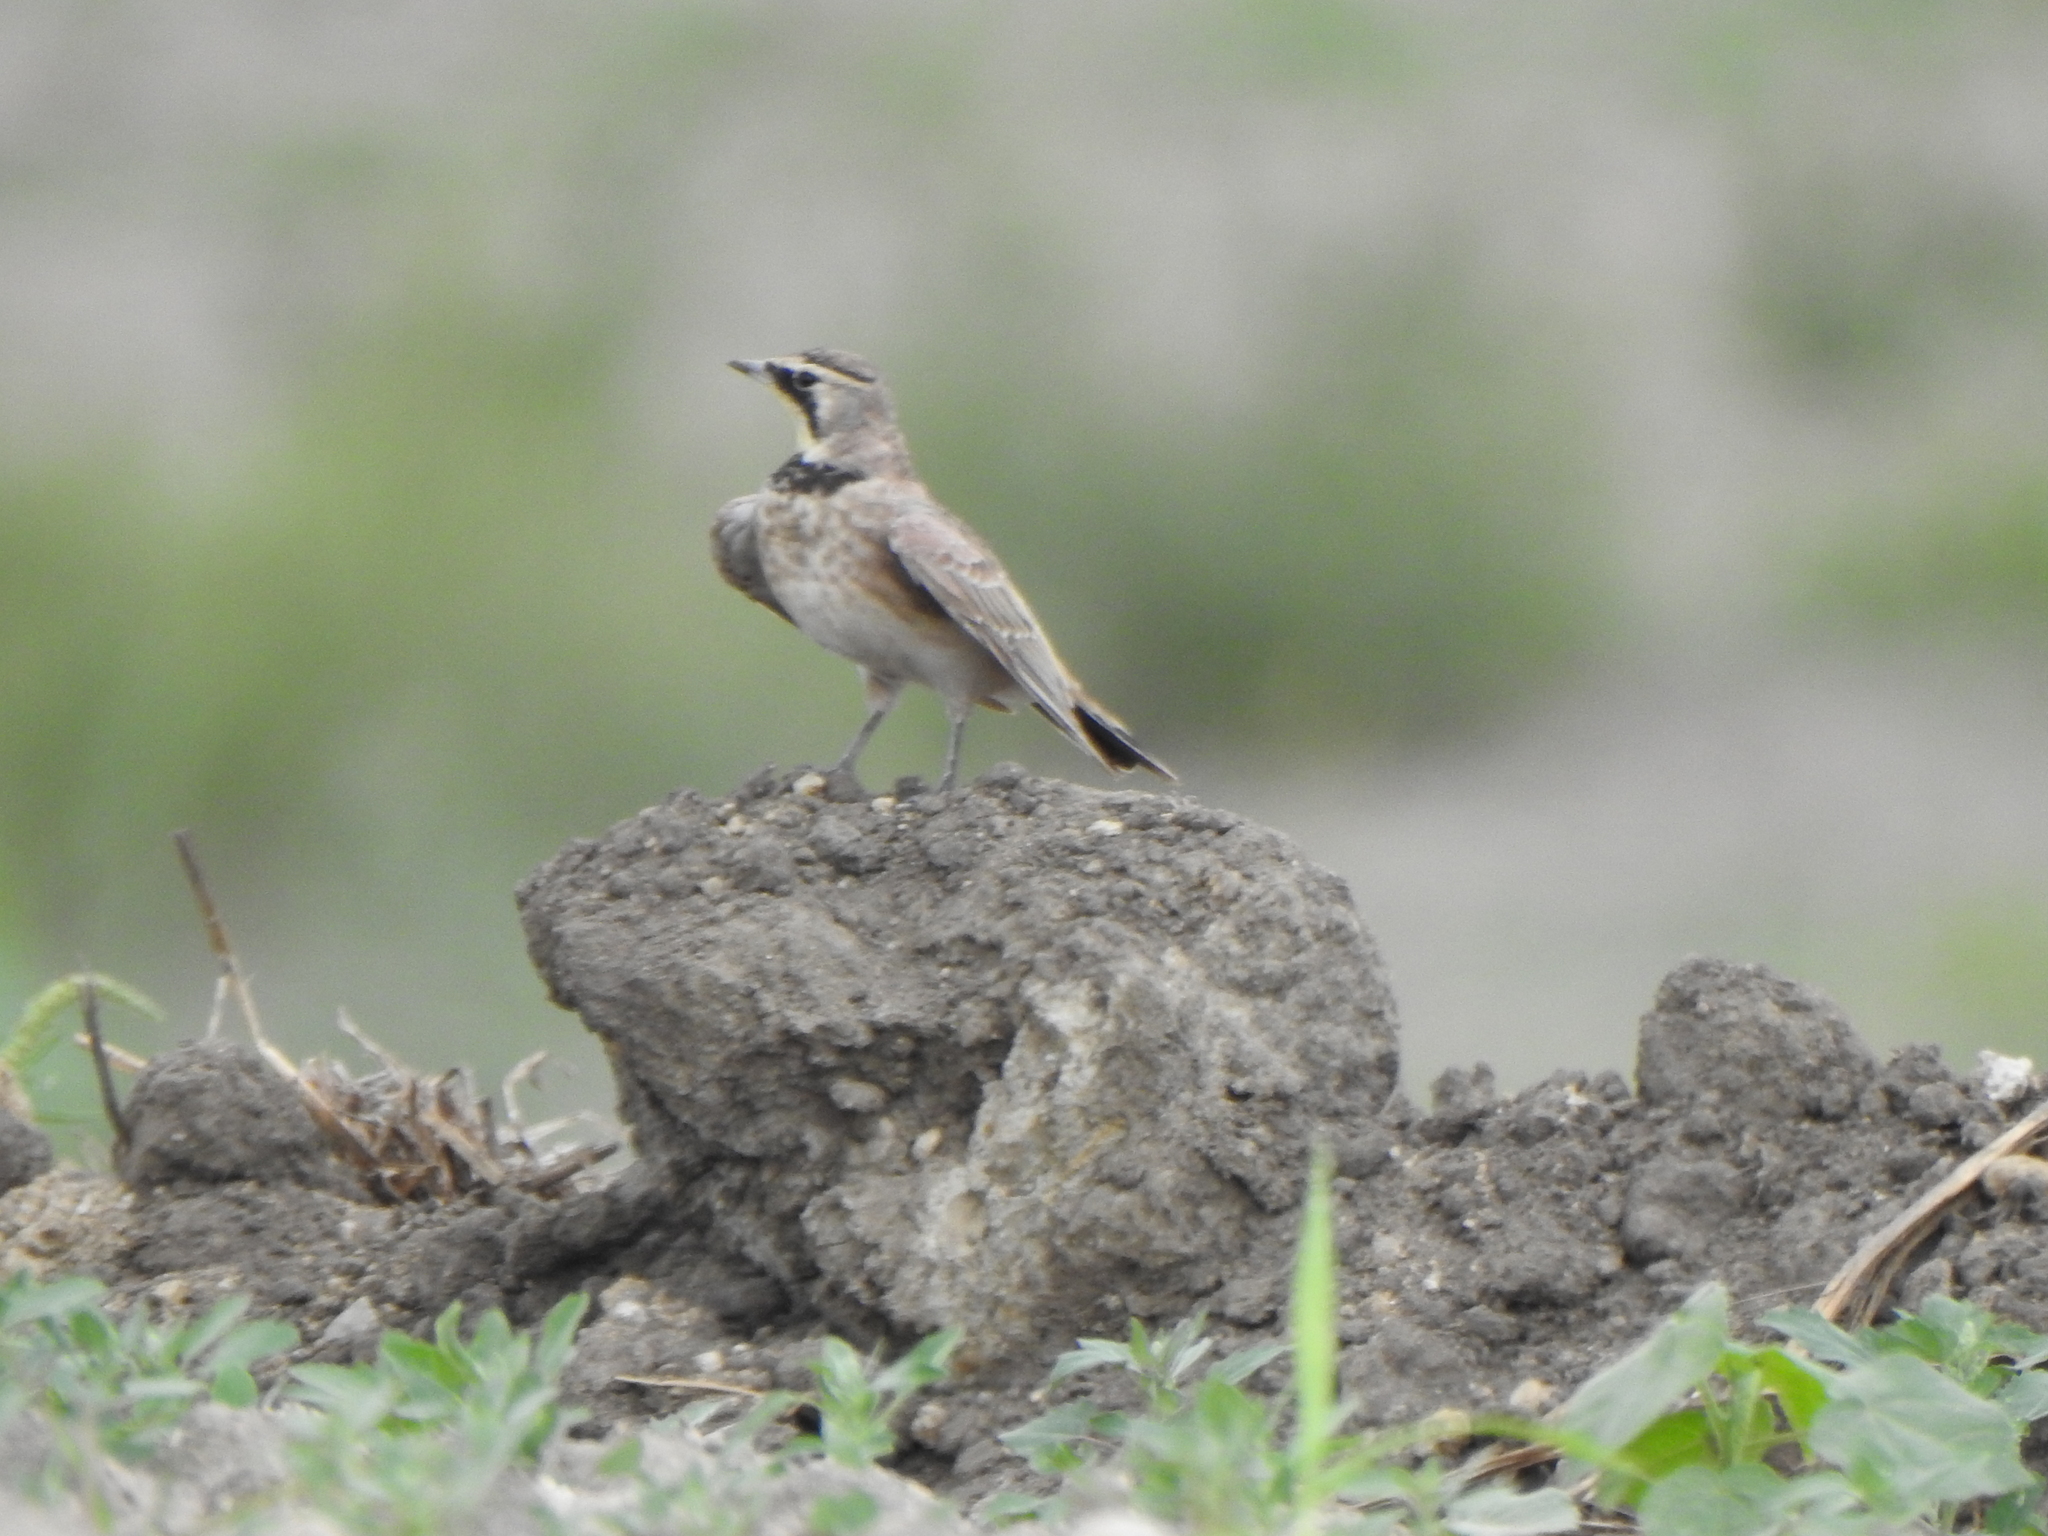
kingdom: Animalia
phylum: Chordata
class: Aves
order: Passeriformes
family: Alaudidae
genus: Eremophila
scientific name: Eremophila alpestris
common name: Horned lark
